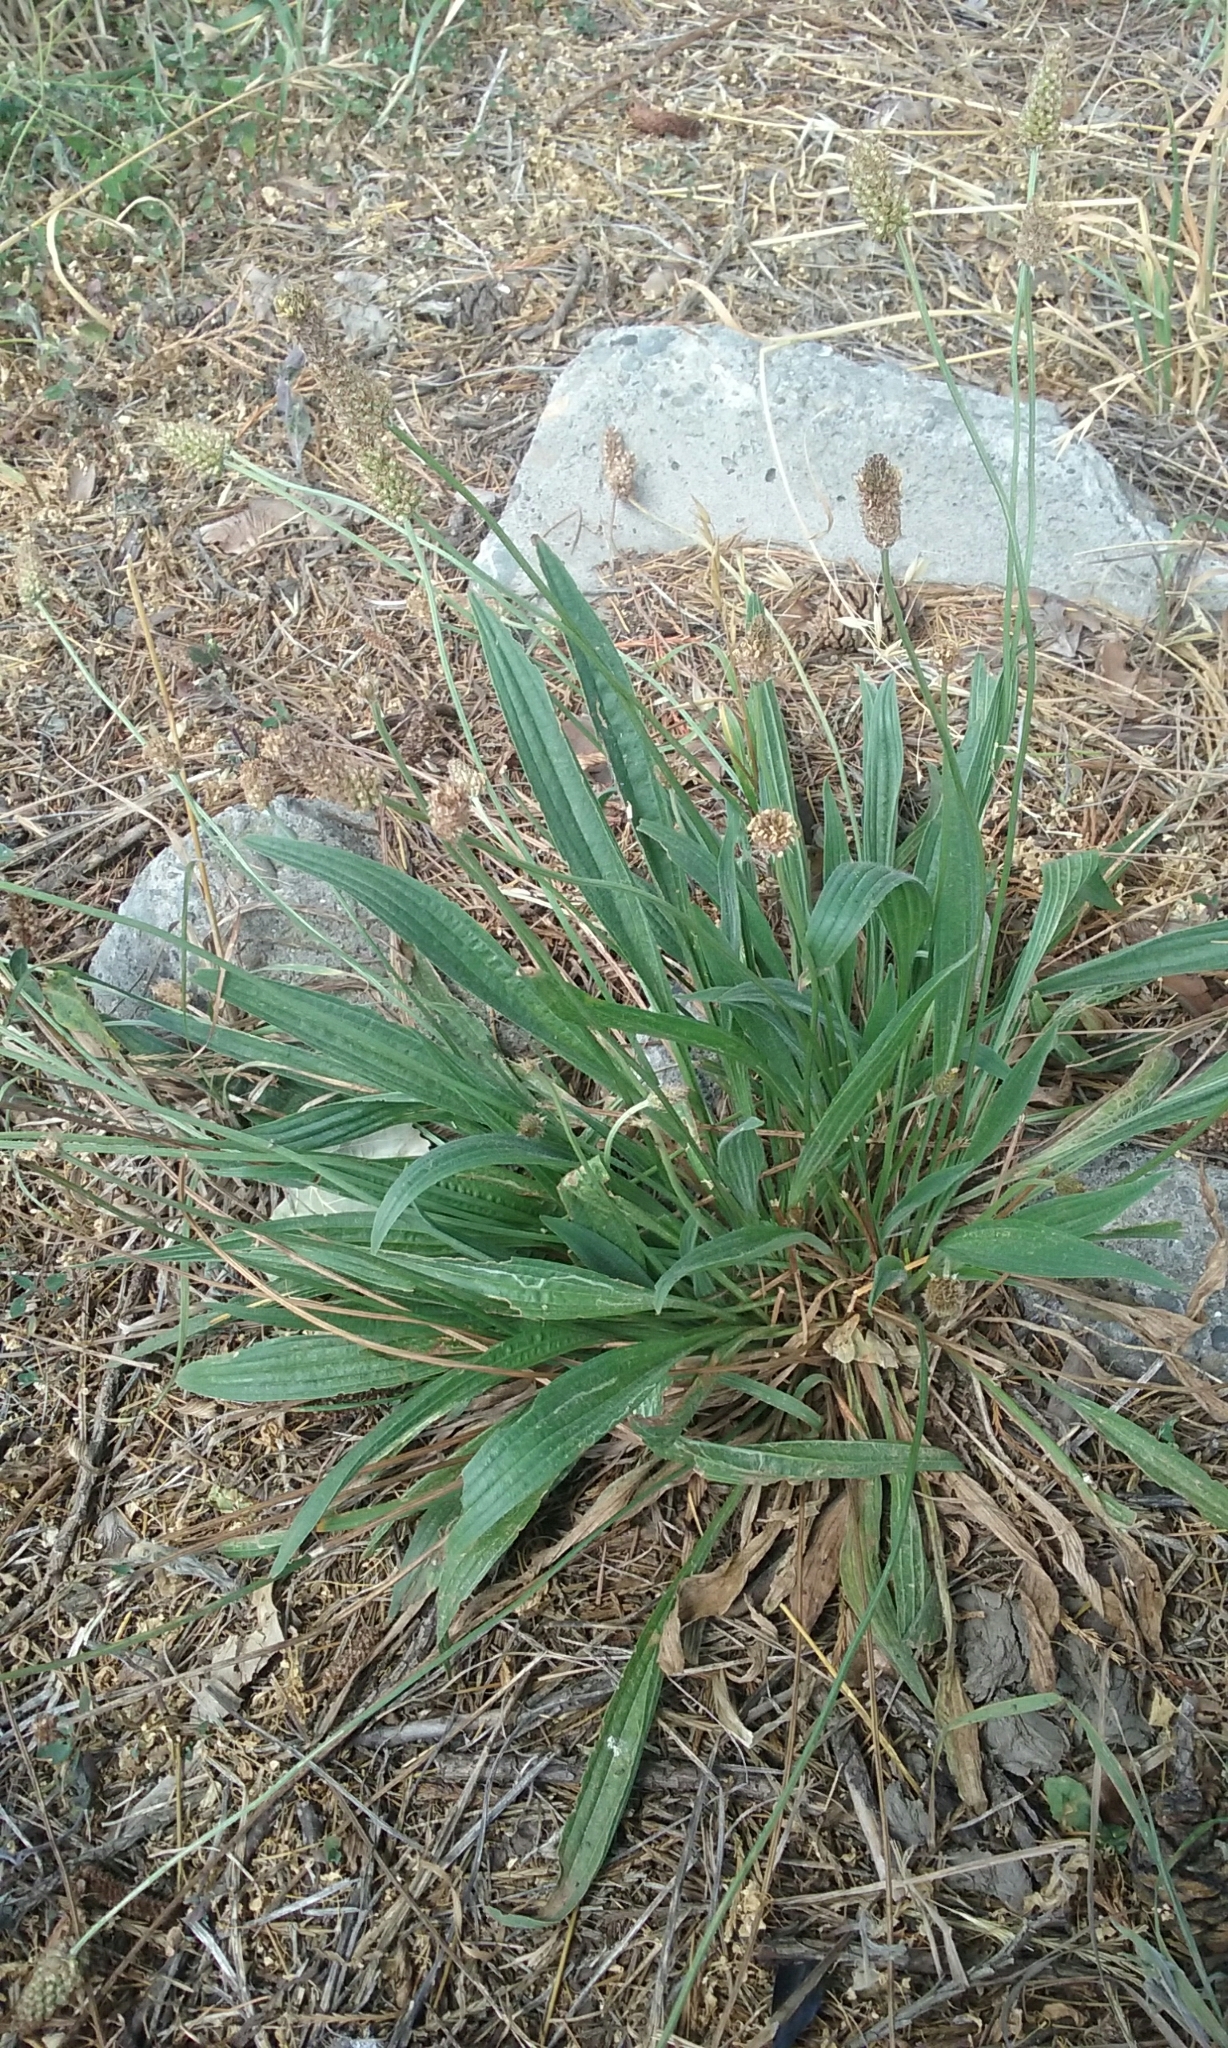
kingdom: Plantae
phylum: Tracheophyta
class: Magnoliopsida
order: Lamiales
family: Plantaginaceae
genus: Plantago
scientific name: Plantago lanceolata
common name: Ribwort plantain
